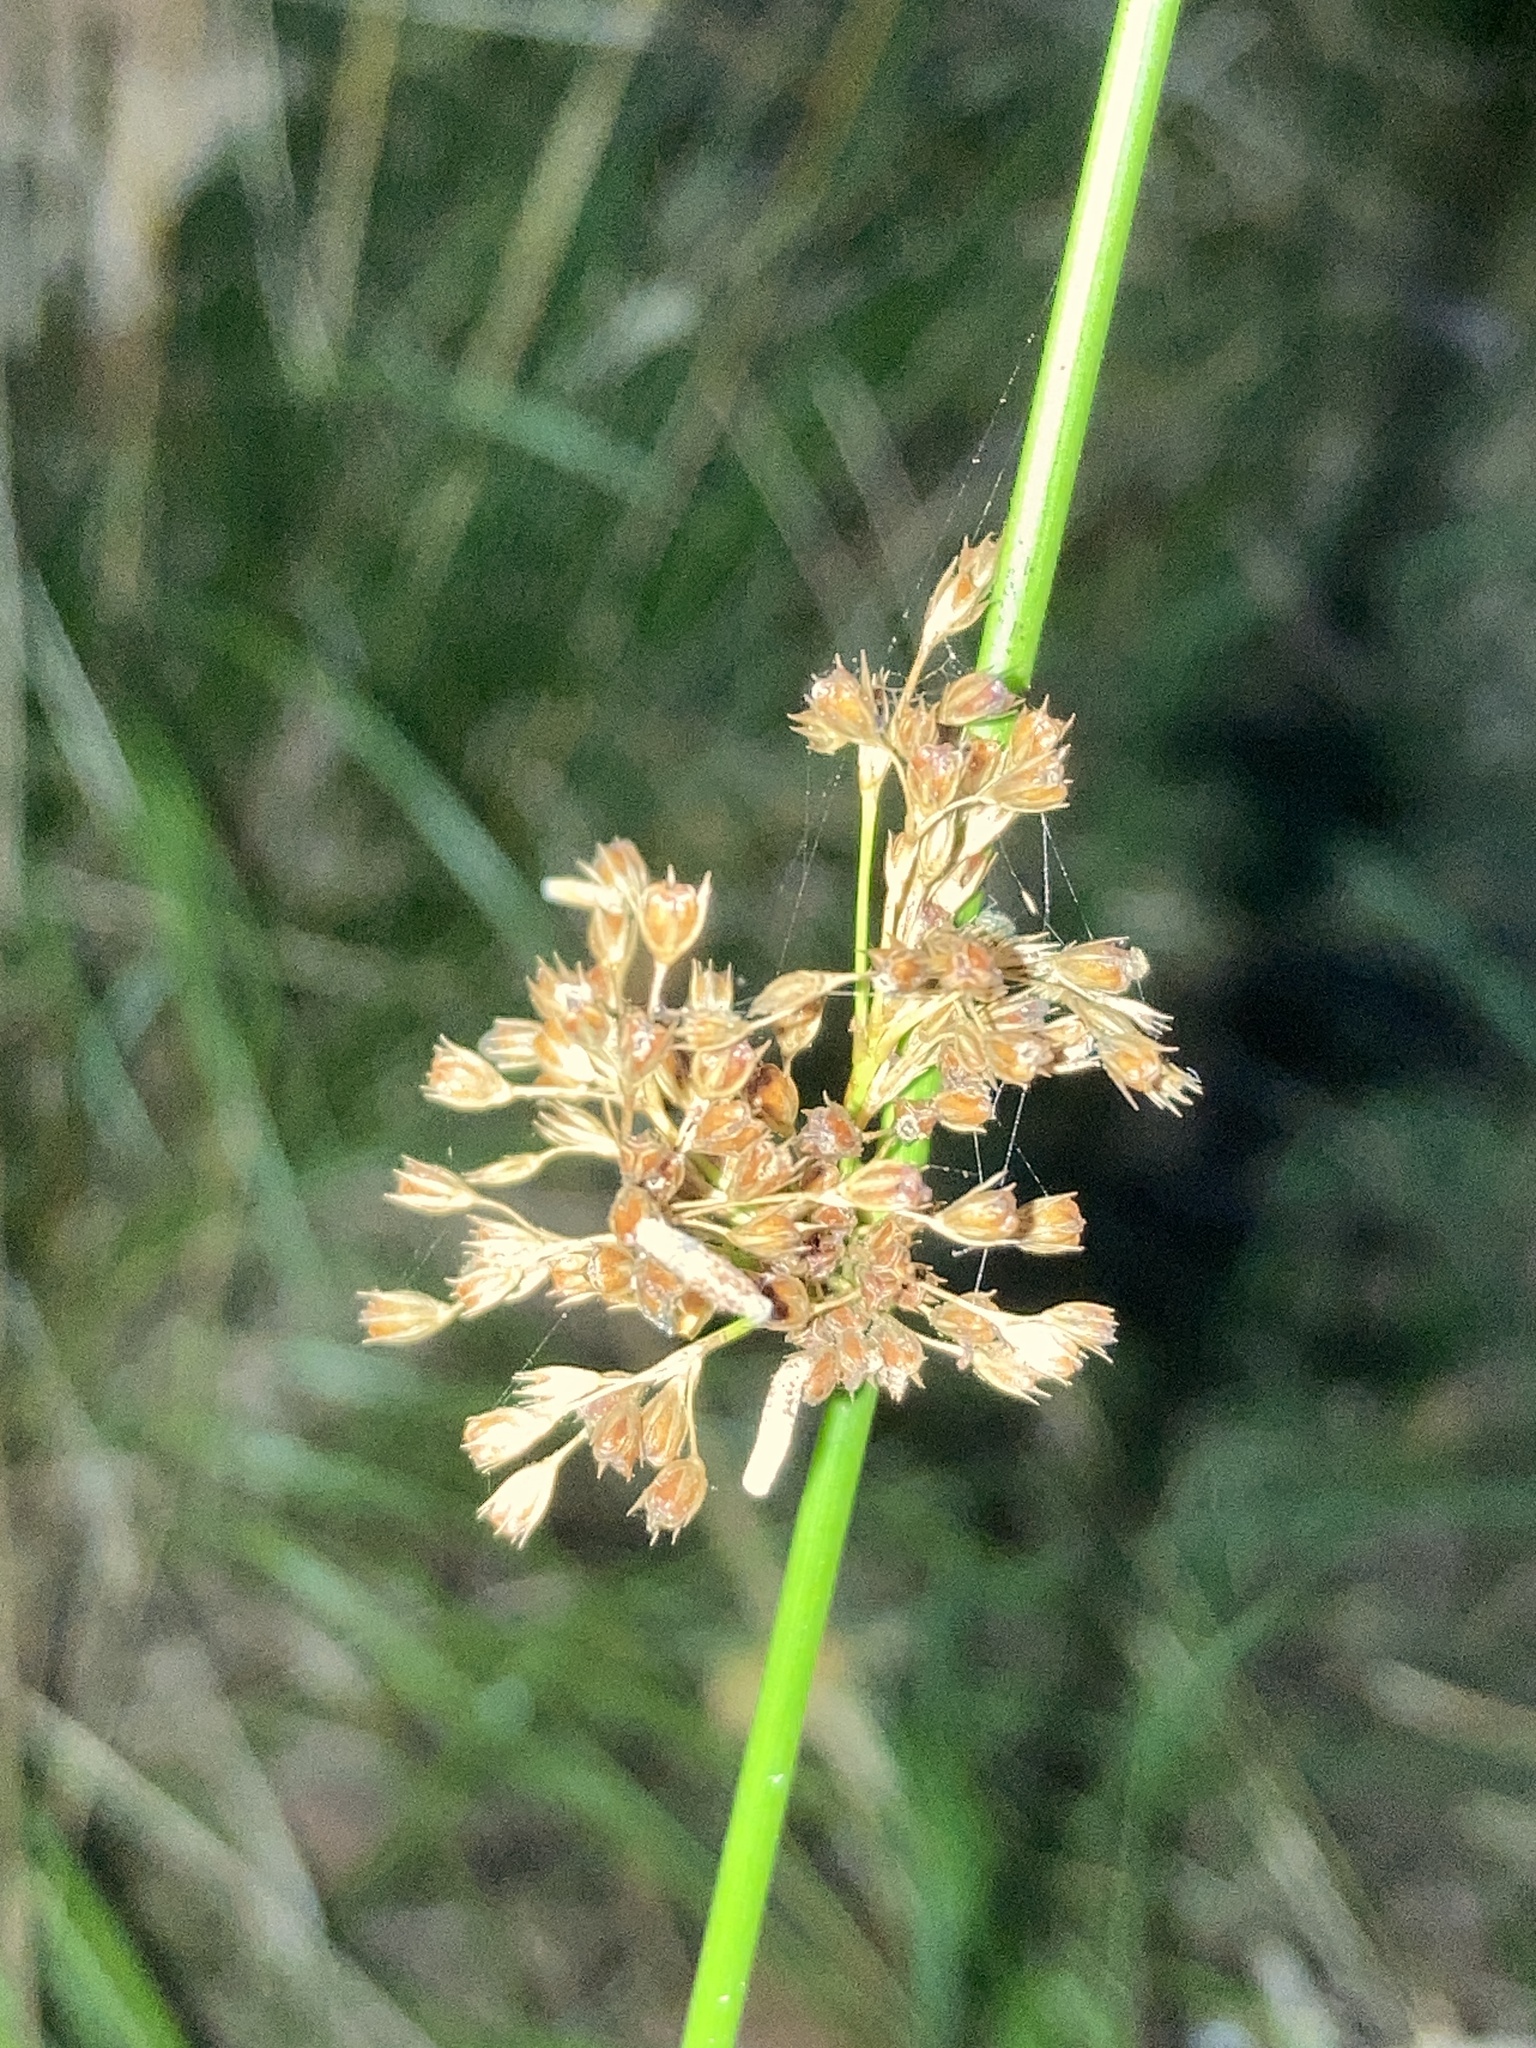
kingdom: Plantae
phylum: Tracheophyta
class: Liliopsida
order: Poales
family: Juncaceae
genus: Juncus
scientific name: Juncus effusus
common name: Soft rush
